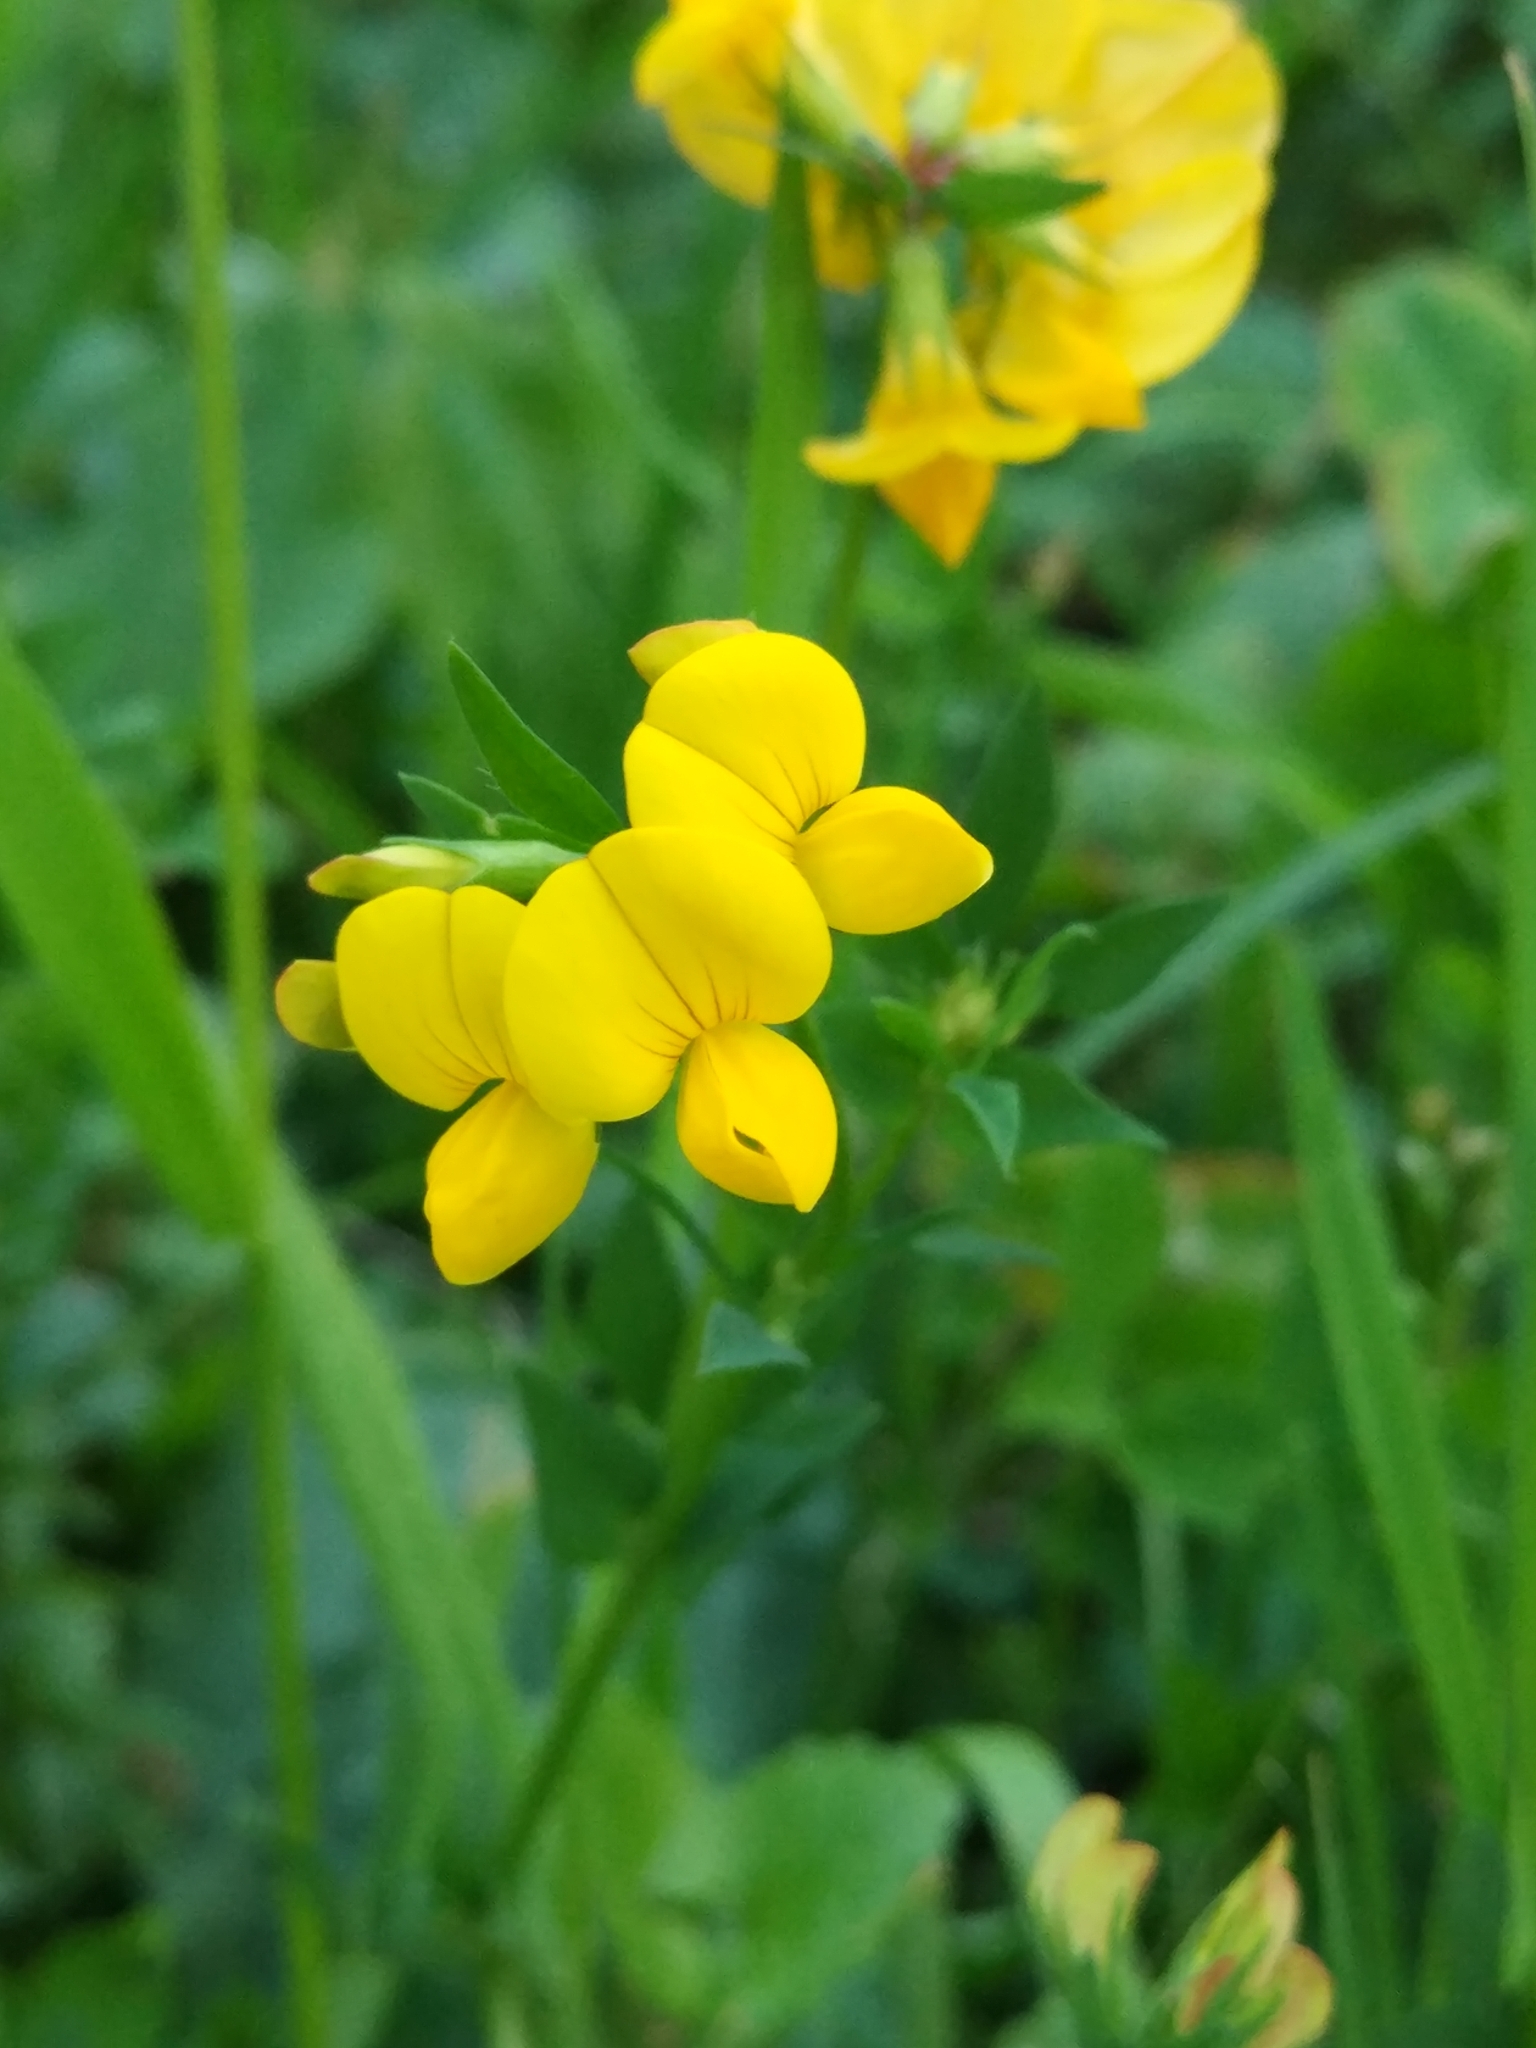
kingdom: Plantae
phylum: Tracheophyta
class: Magnoliopsida
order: Fabales
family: Fabaceae
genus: Lotus
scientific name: Lotus corniculatus
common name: Common bird's-foot-trefoil
